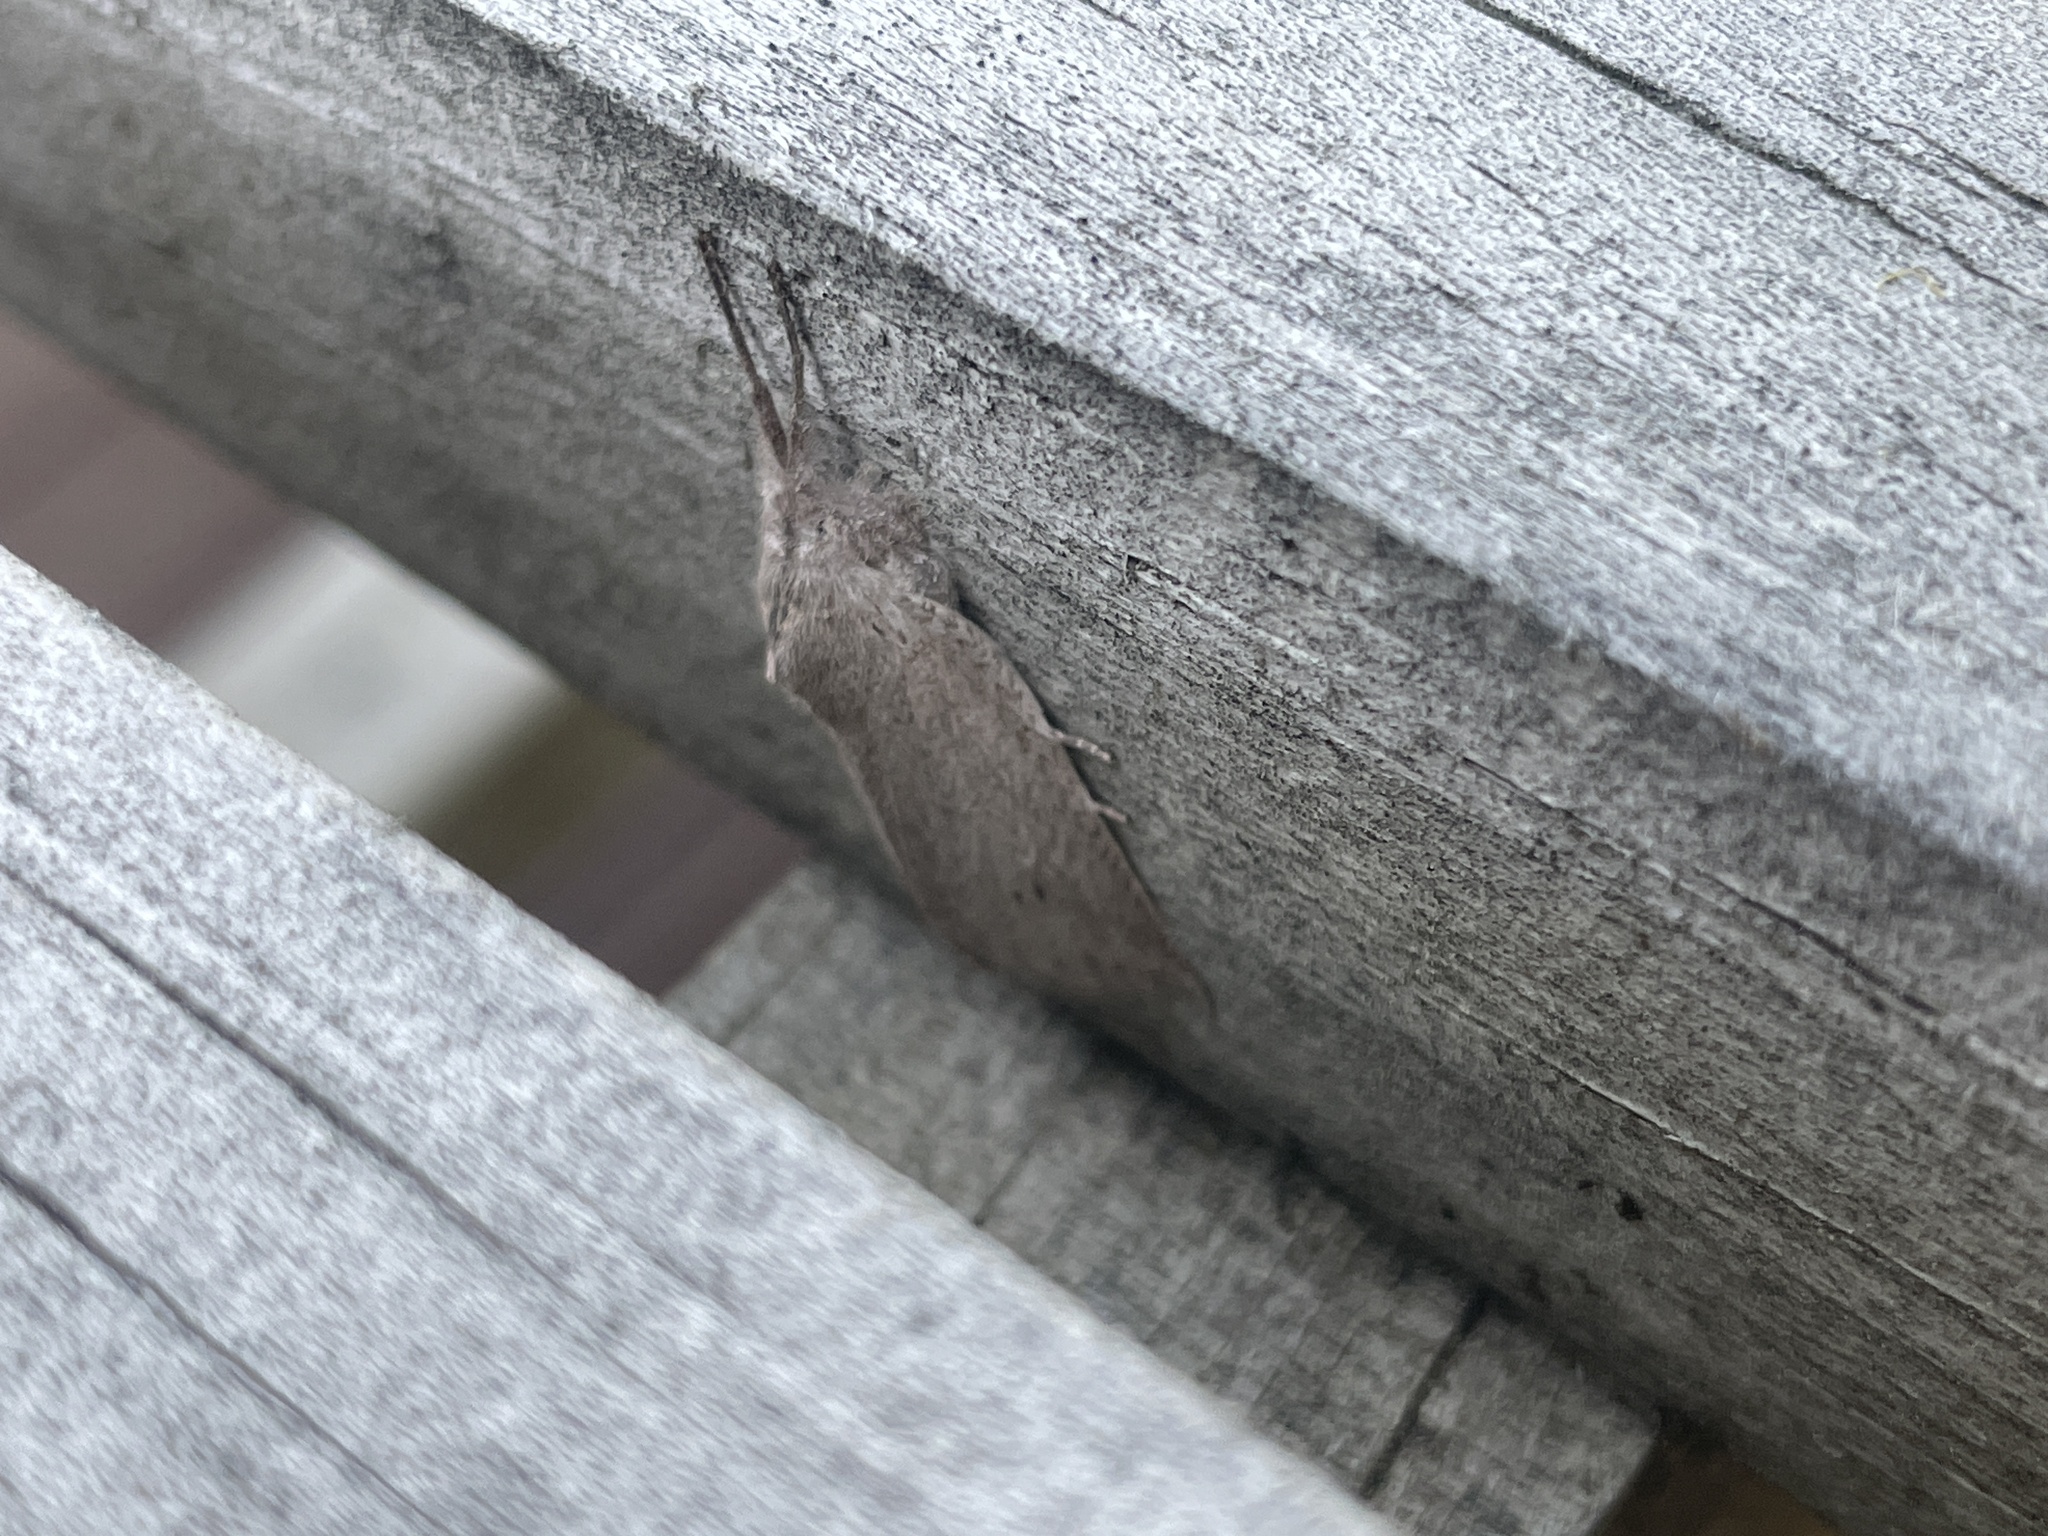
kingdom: Animalia
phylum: Arthropoda
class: Insecta
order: Lepidoptera
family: Geometridae
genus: Declana
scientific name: Declana leptomera
